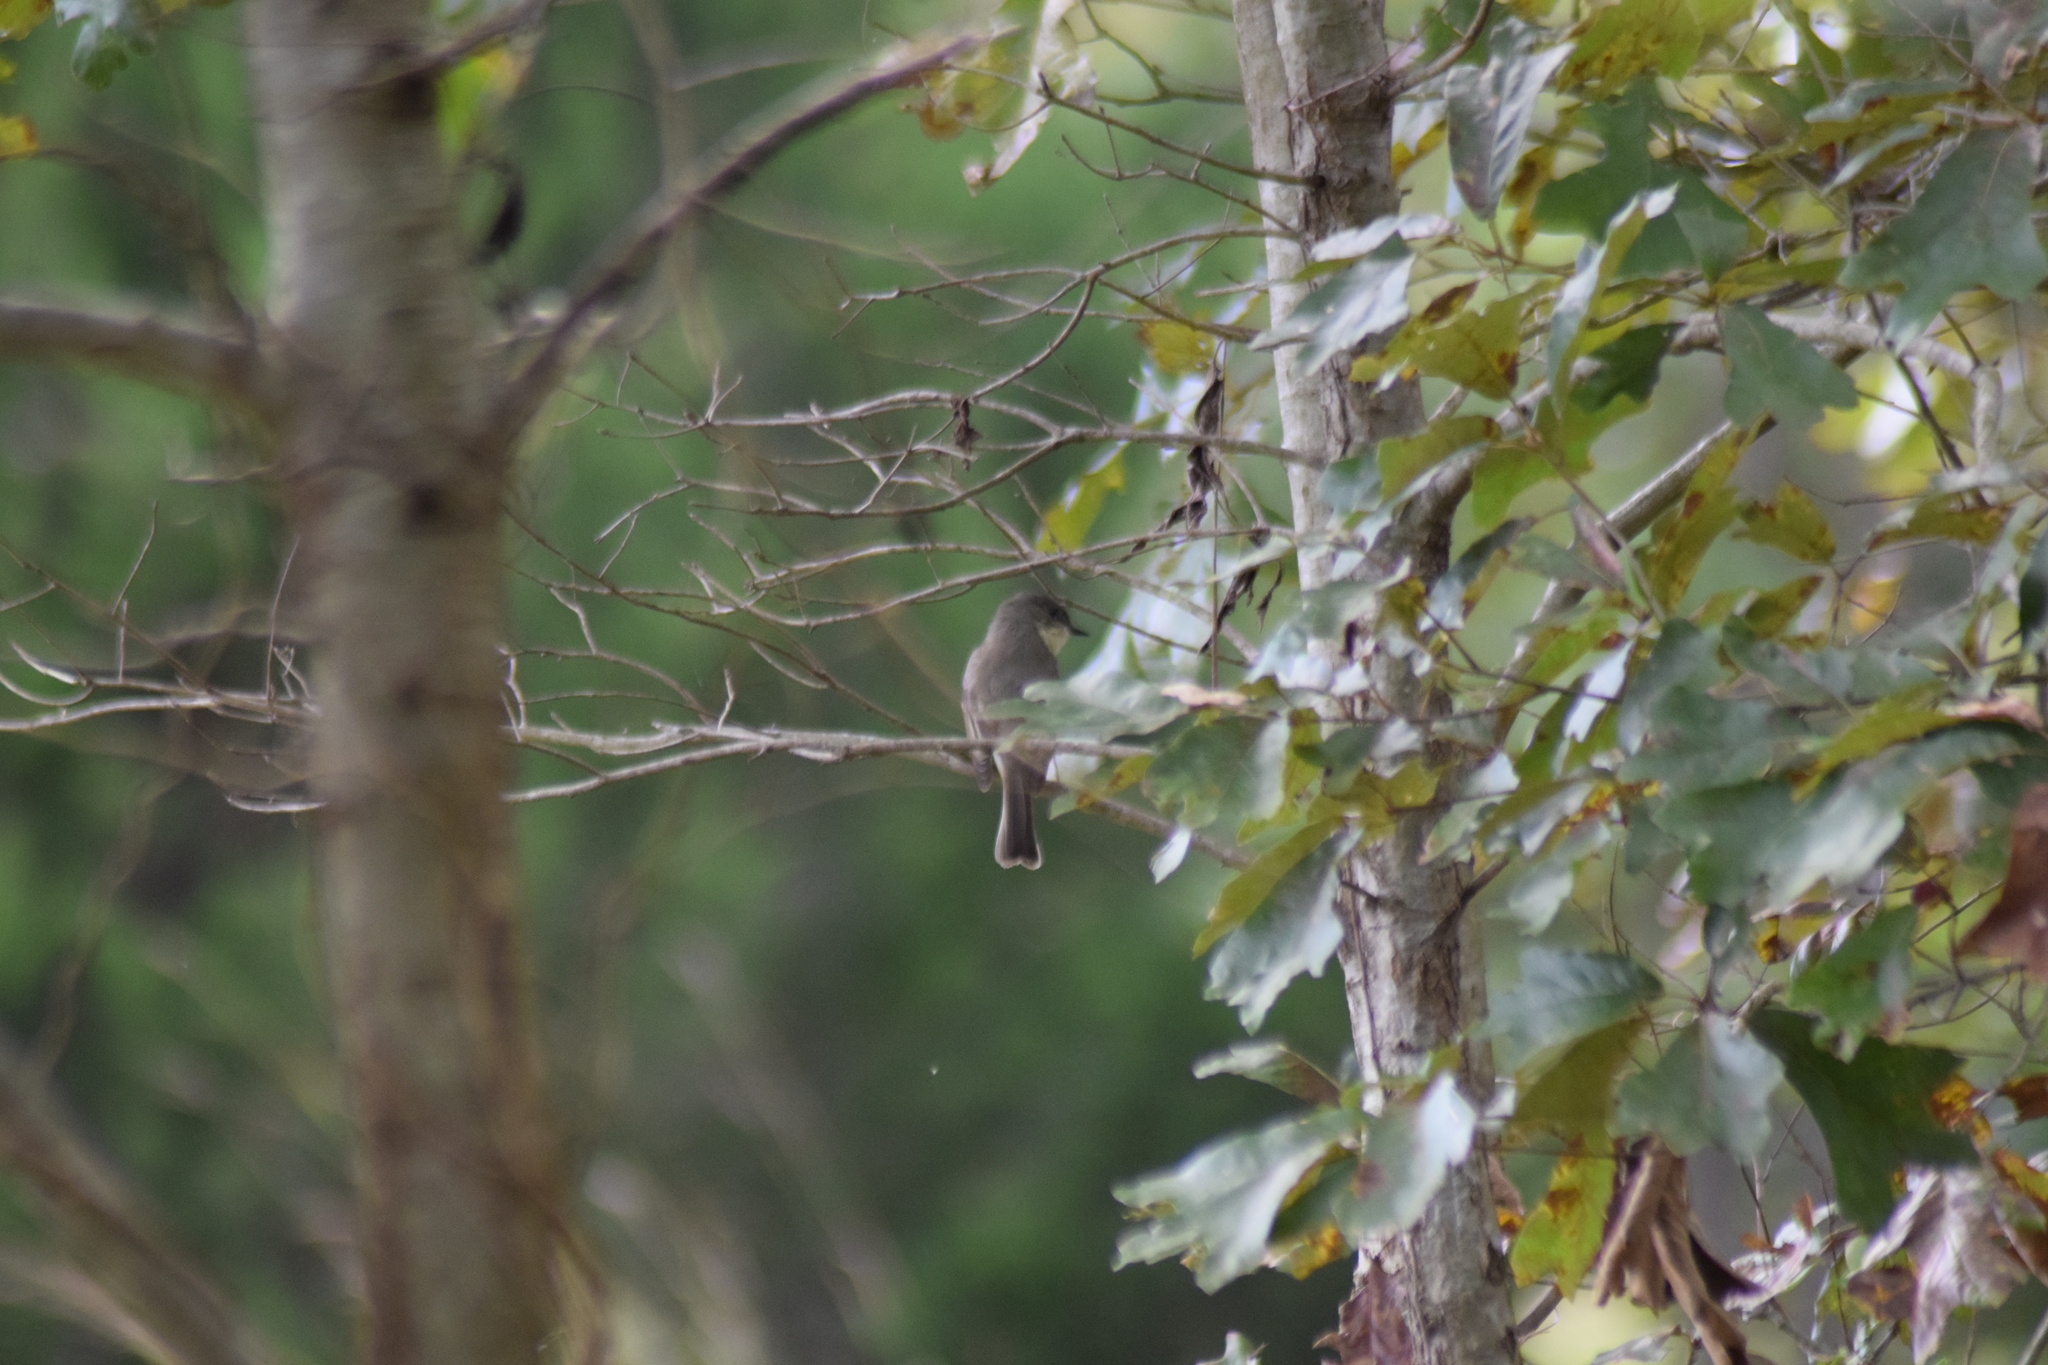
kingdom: Animalia
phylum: Chordata
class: Aves
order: Passeriformes
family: Tyrannidae
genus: Sayornis
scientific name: Sayornis phoebe
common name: Eastern phoebe
